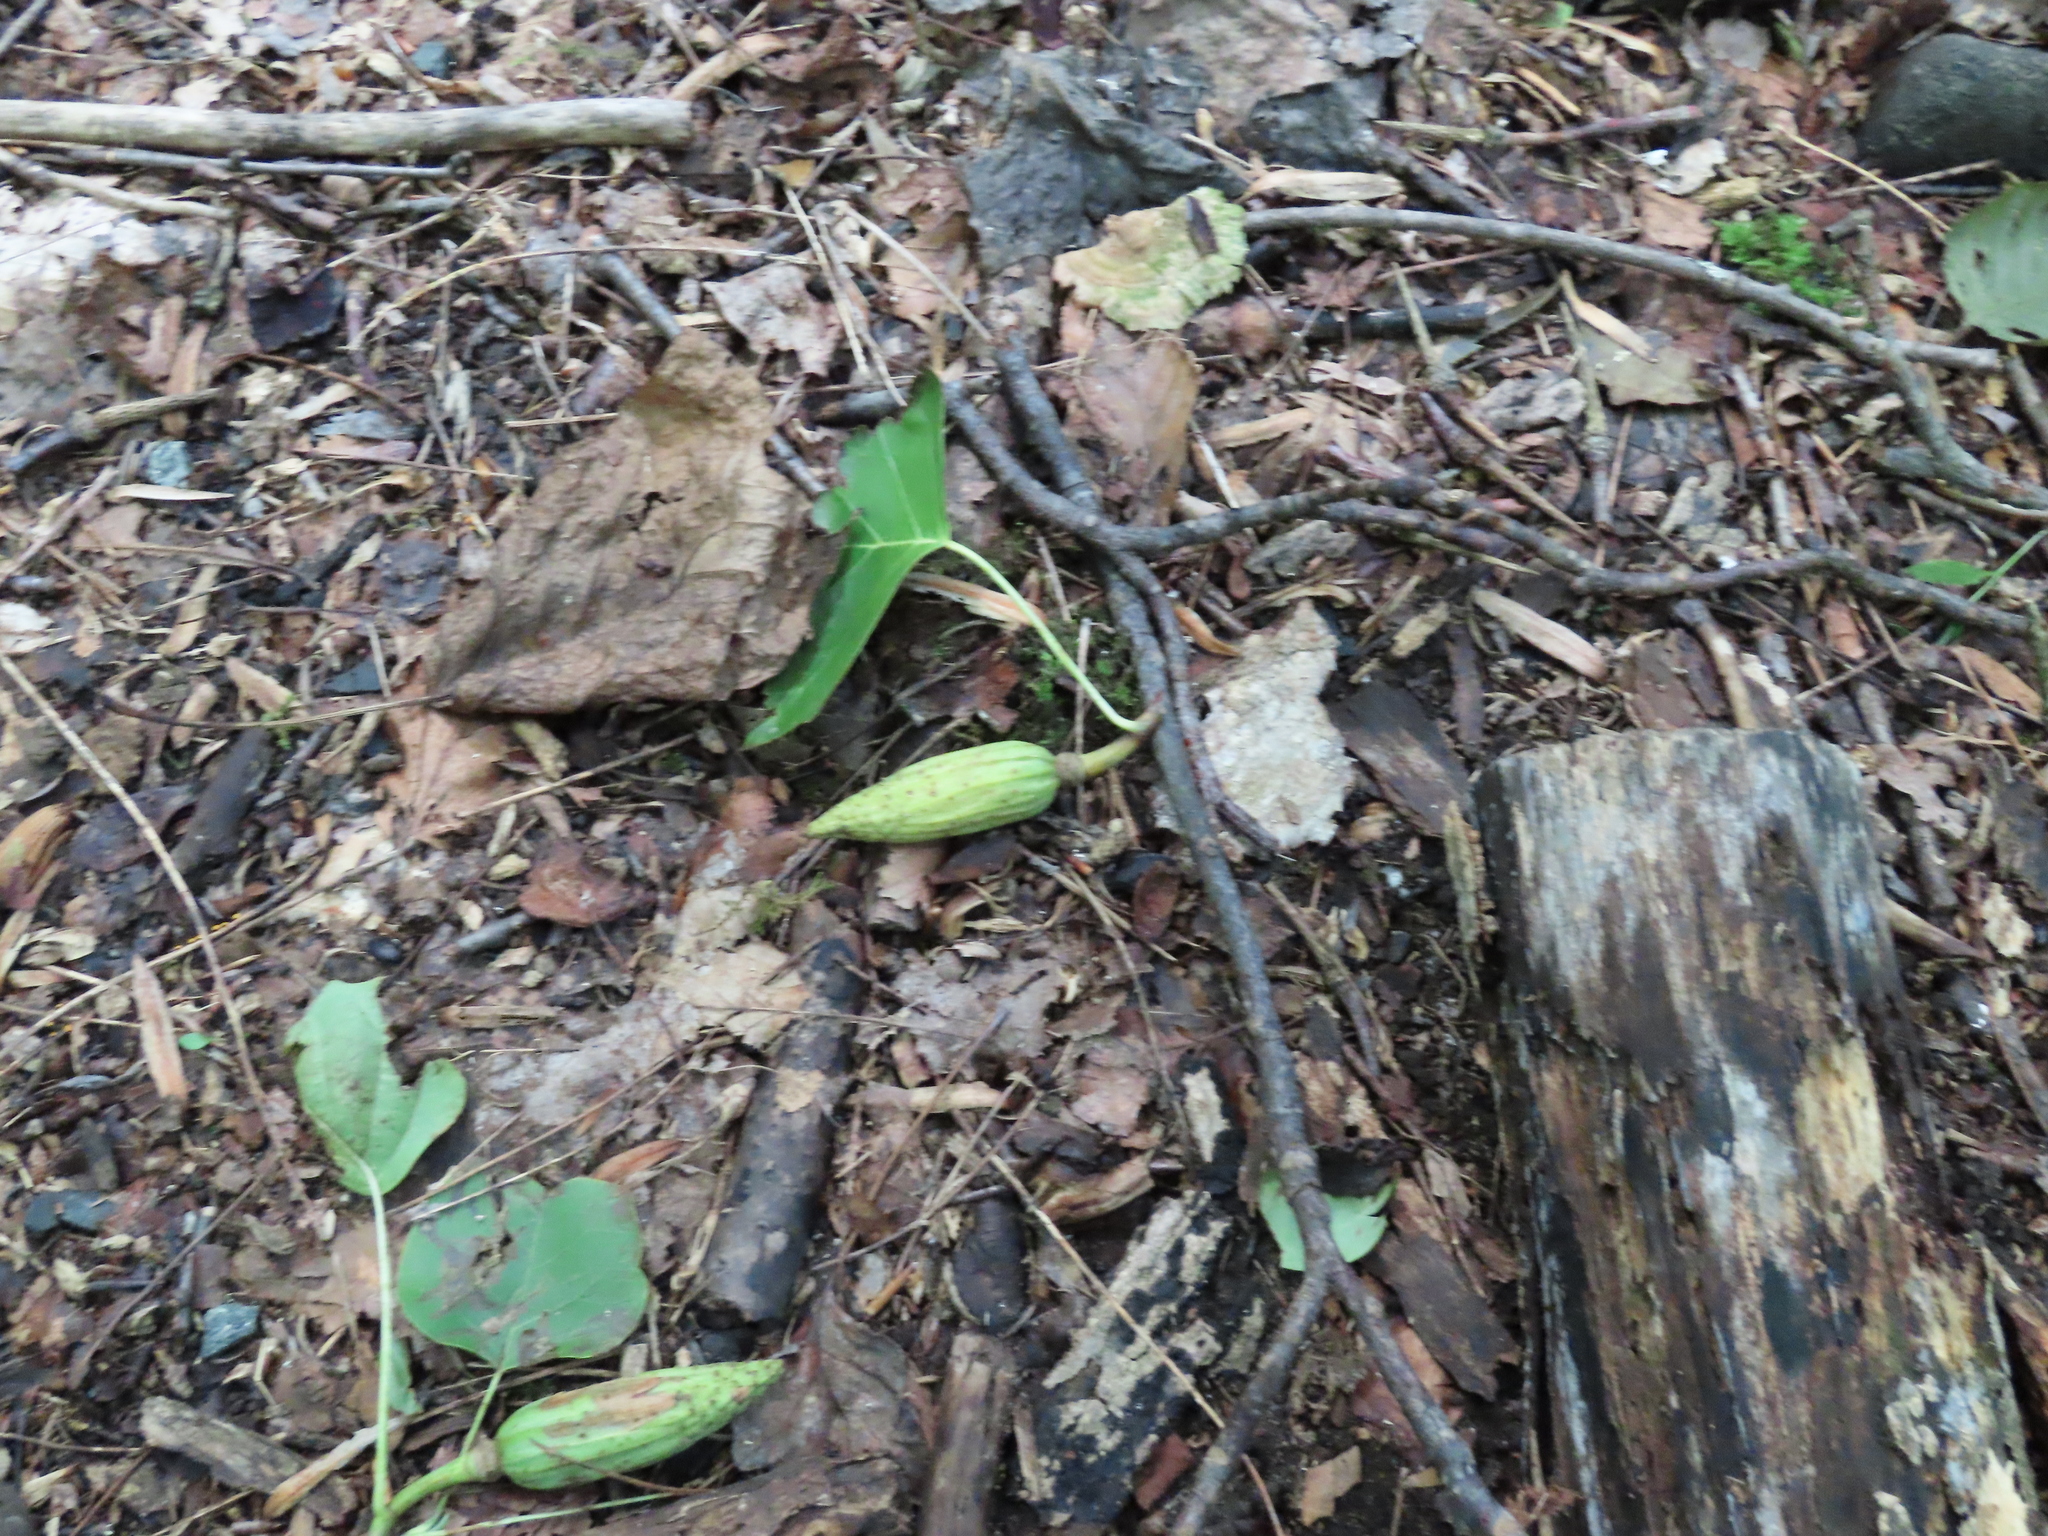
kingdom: Plantae
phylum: Tracheophyta
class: Magnoliopsida
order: Magnoliales
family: Magnoliaceae
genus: Liriodendron
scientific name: Liriodendron tulipifera
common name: Tulip tree
